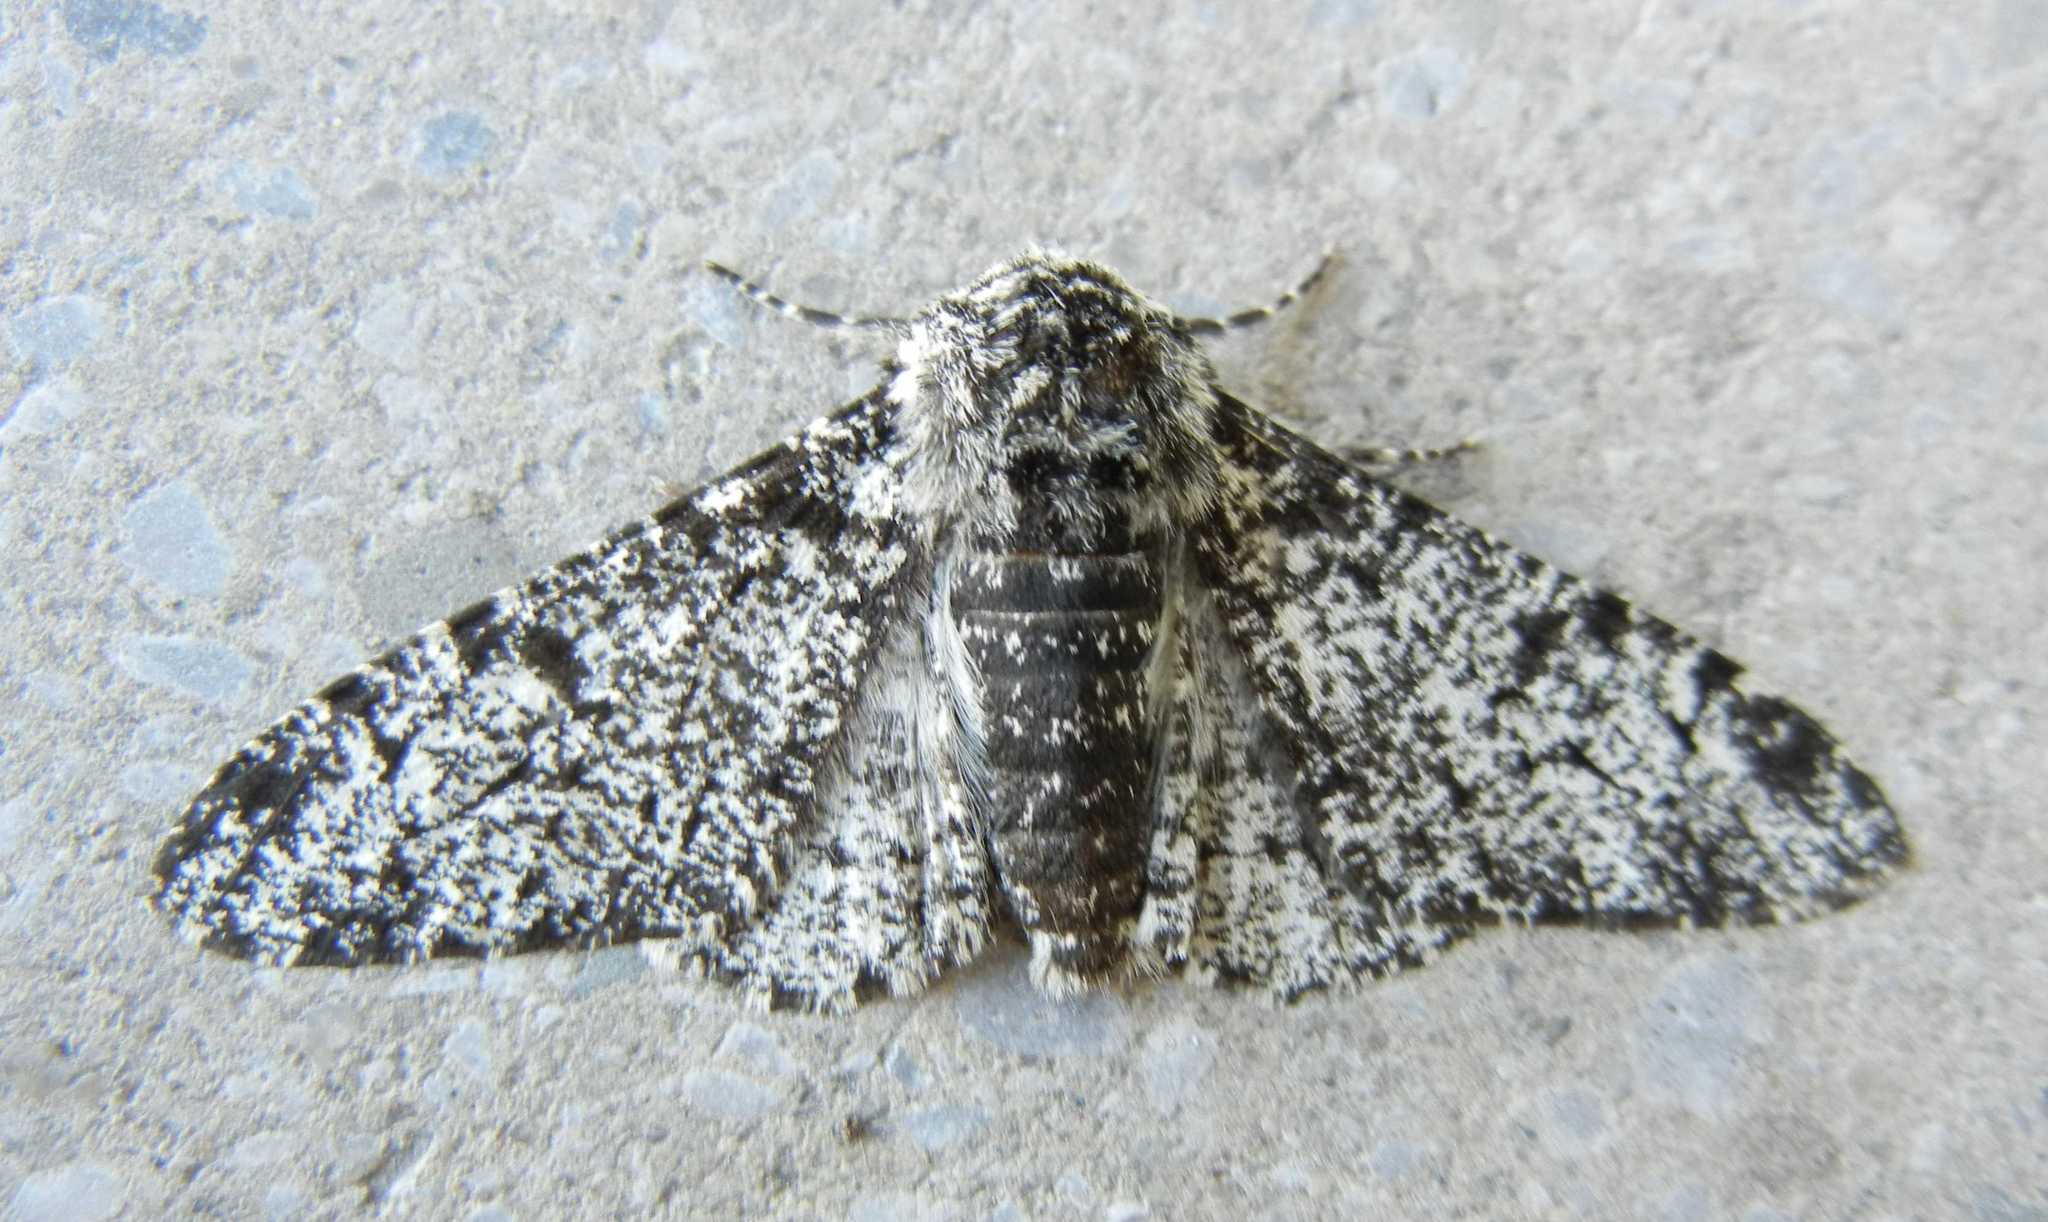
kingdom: Animalia
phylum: Arthropoda
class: Insecta
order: Lepidoptera
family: Geometridae
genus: Biston
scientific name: Biston betularia
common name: Peppered moth
